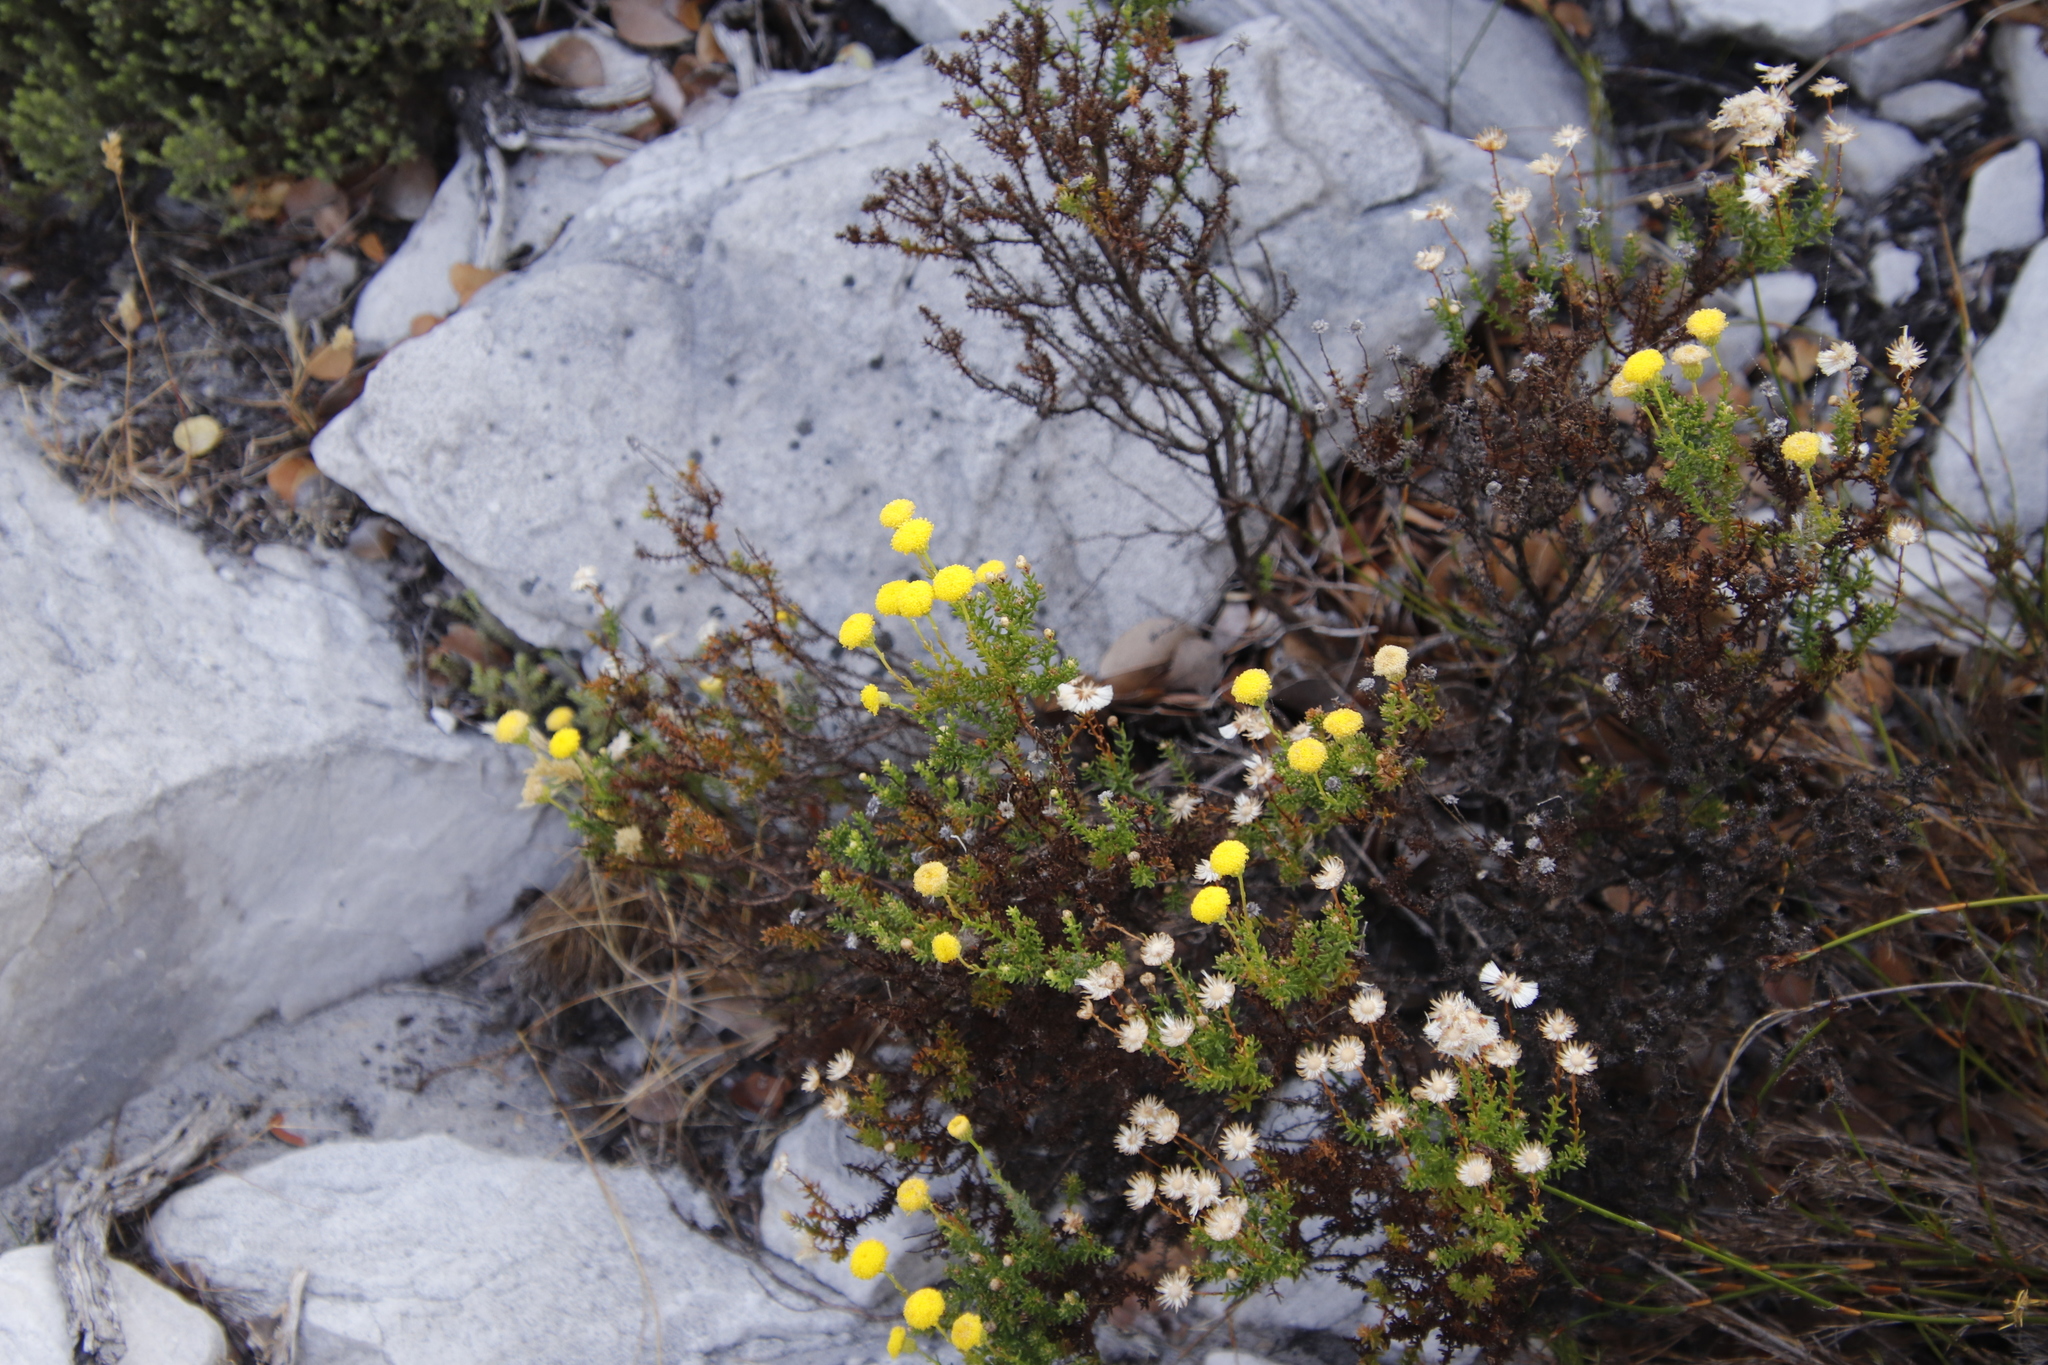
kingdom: Plantae
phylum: Tracheophyta
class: Magnoliopsida
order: Asterales
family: Asteraceae
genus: Chrysocoma
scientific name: Chrysocoma cernua
